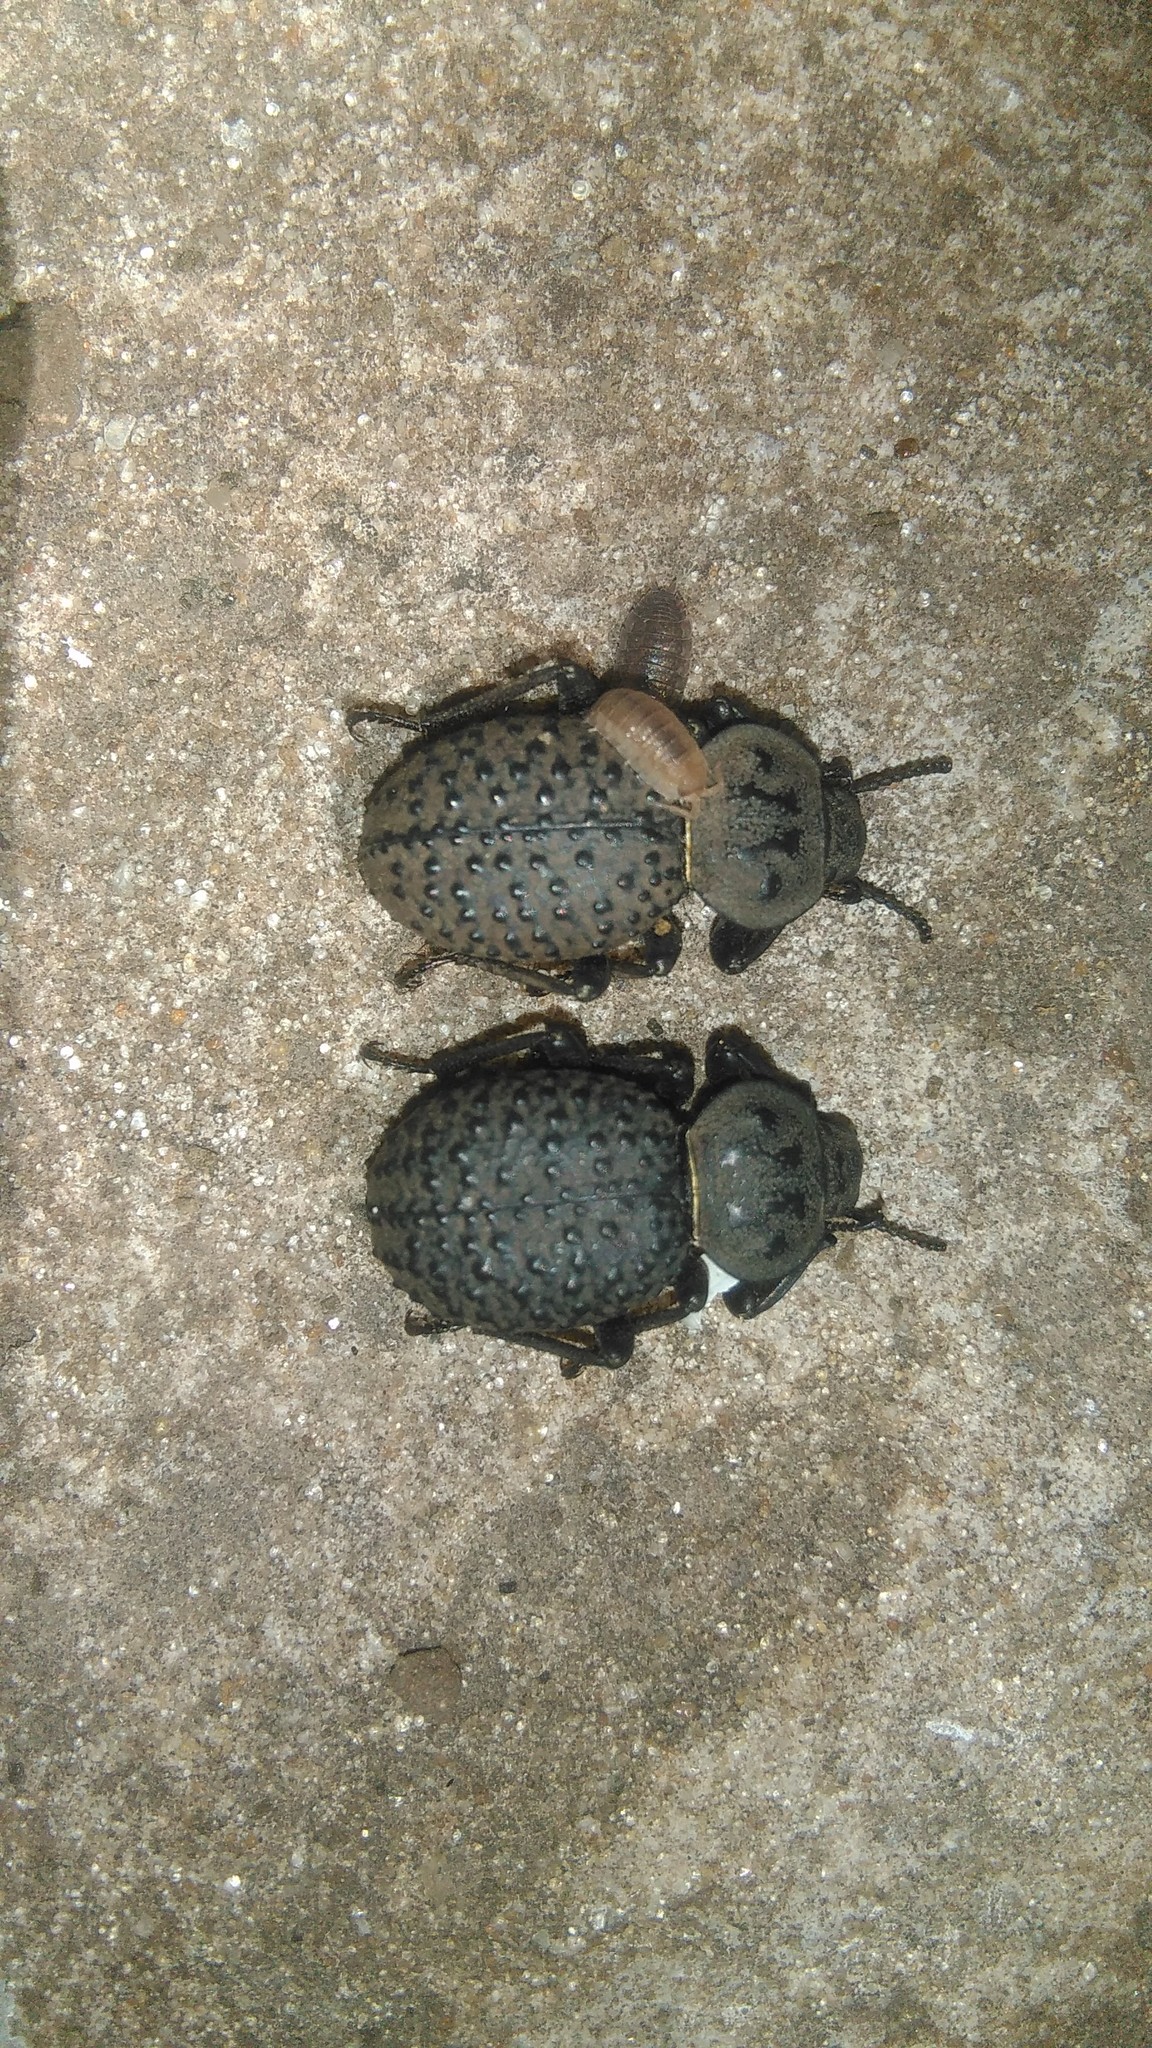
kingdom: Animalia
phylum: Arthropoda
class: Insecta
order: Coleoptera
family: Tenebrionidae
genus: Scotobius
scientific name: Scotobius pilularius
